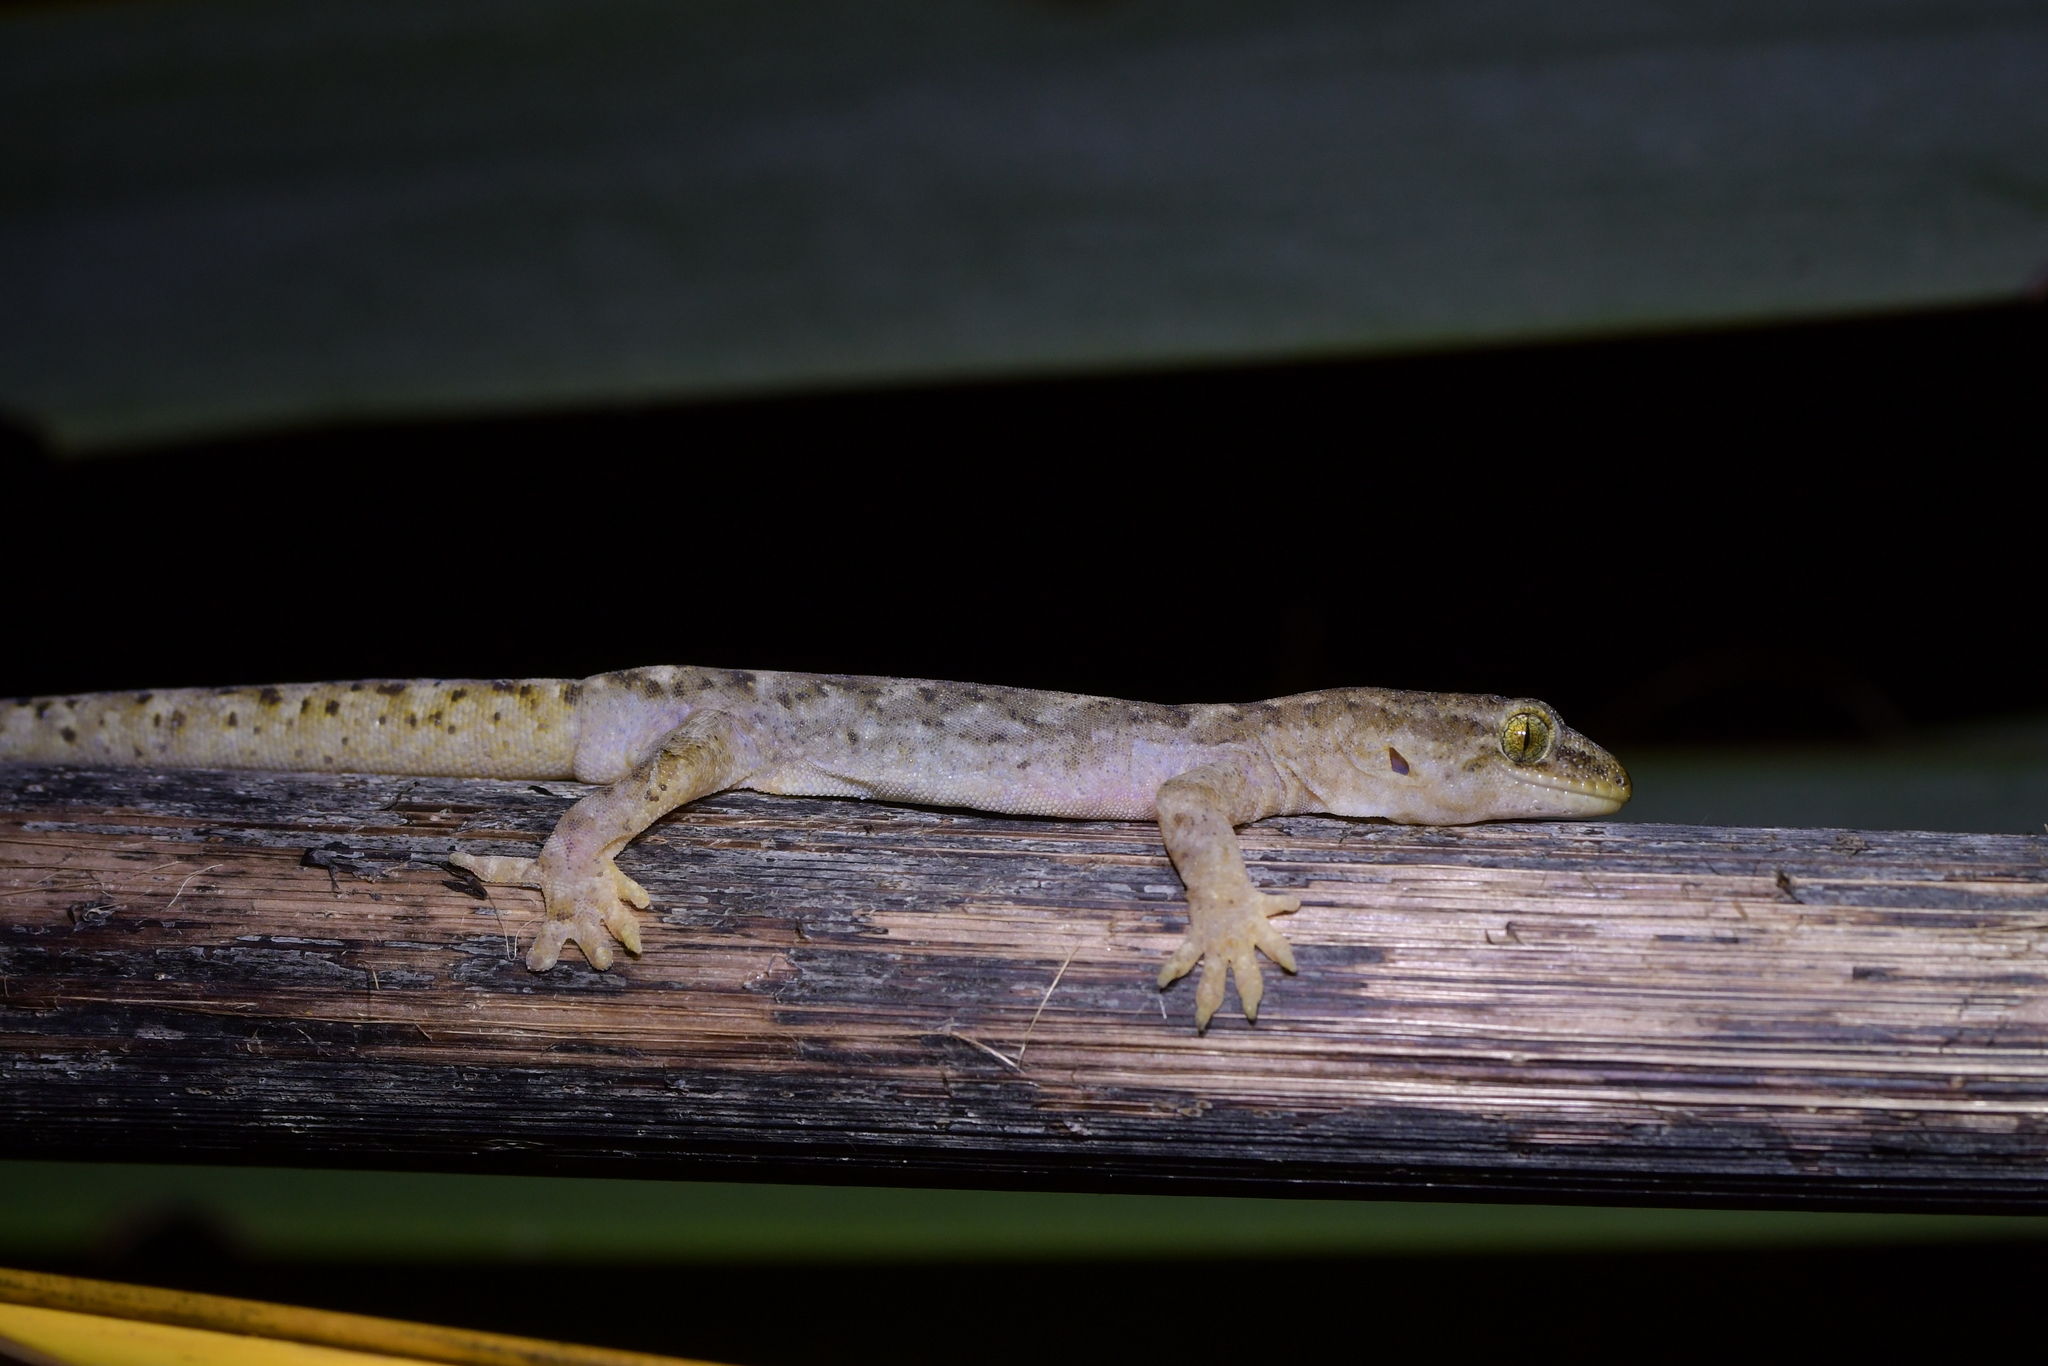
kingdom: Animalia
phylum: Chordata
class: Squamata
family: Diplodactylidae
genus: Woodworthia
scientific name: Woodworthia maculata
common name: Raukawa gecko
